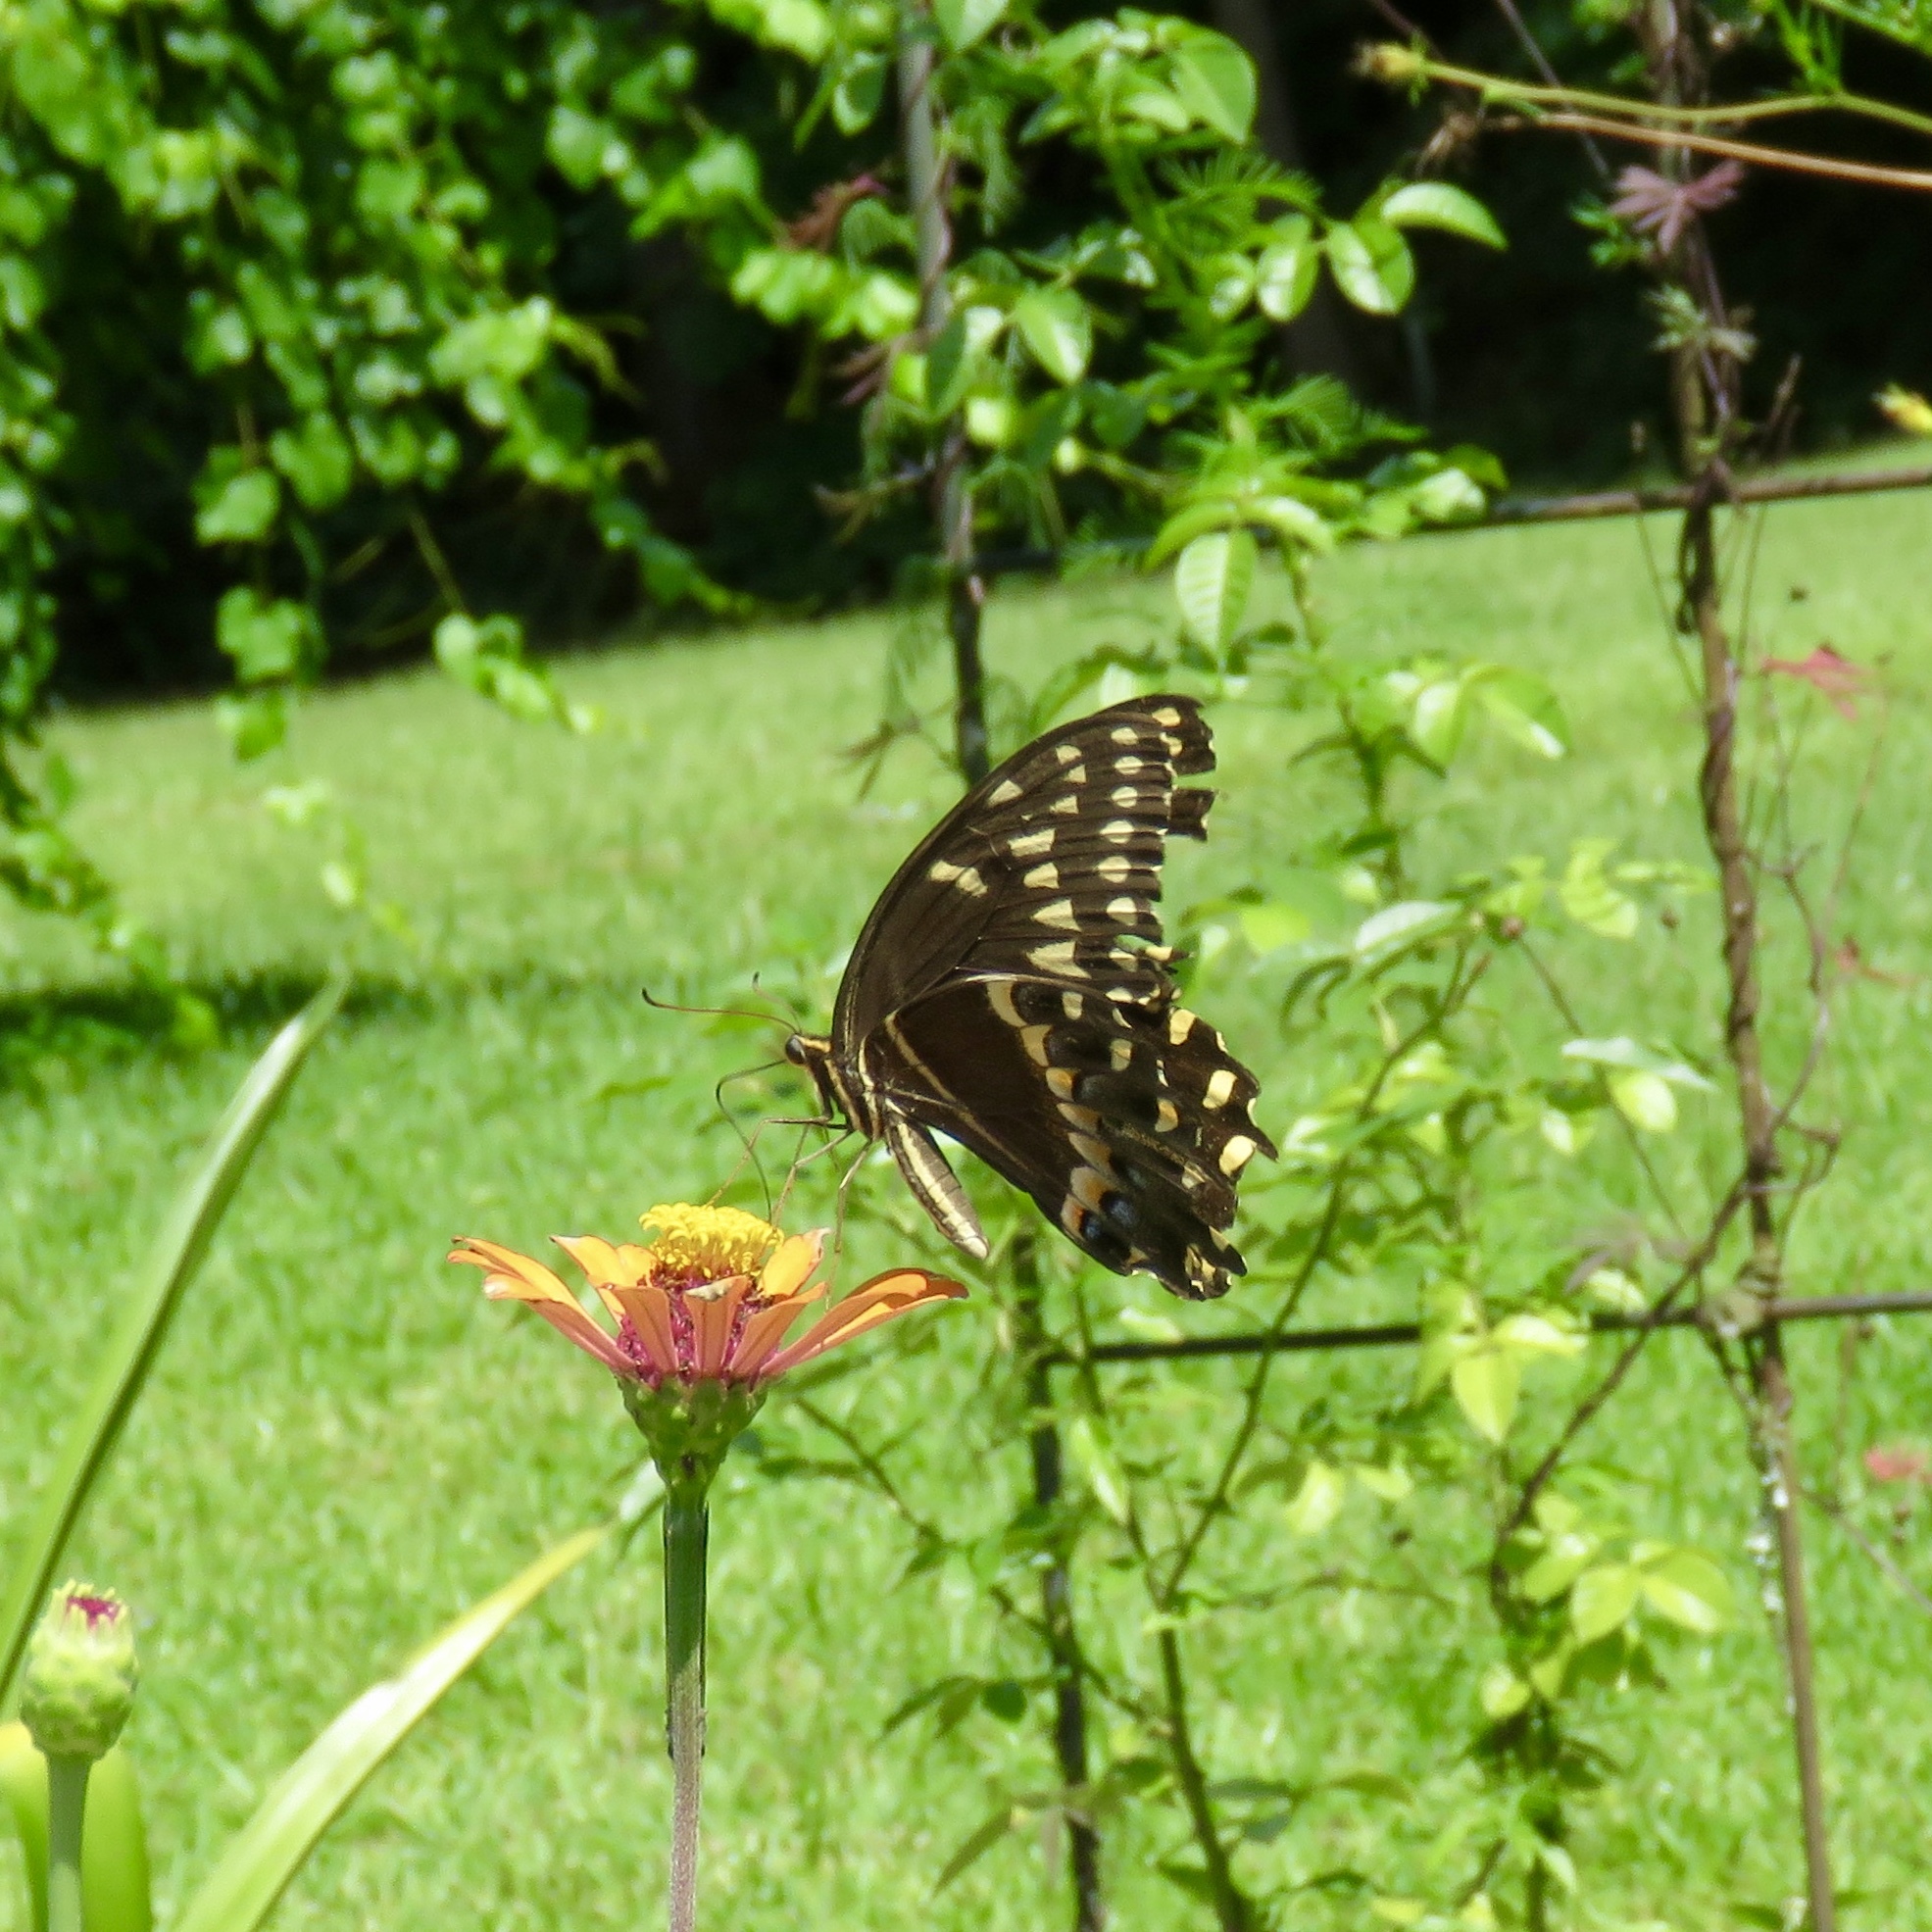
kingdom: Animalia
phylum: Arthropoda
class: Insecta
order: Lepidoptera
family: Papilionidae
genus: Papilio
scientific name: Papilio palamedes
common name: Palamedes swallowtail
